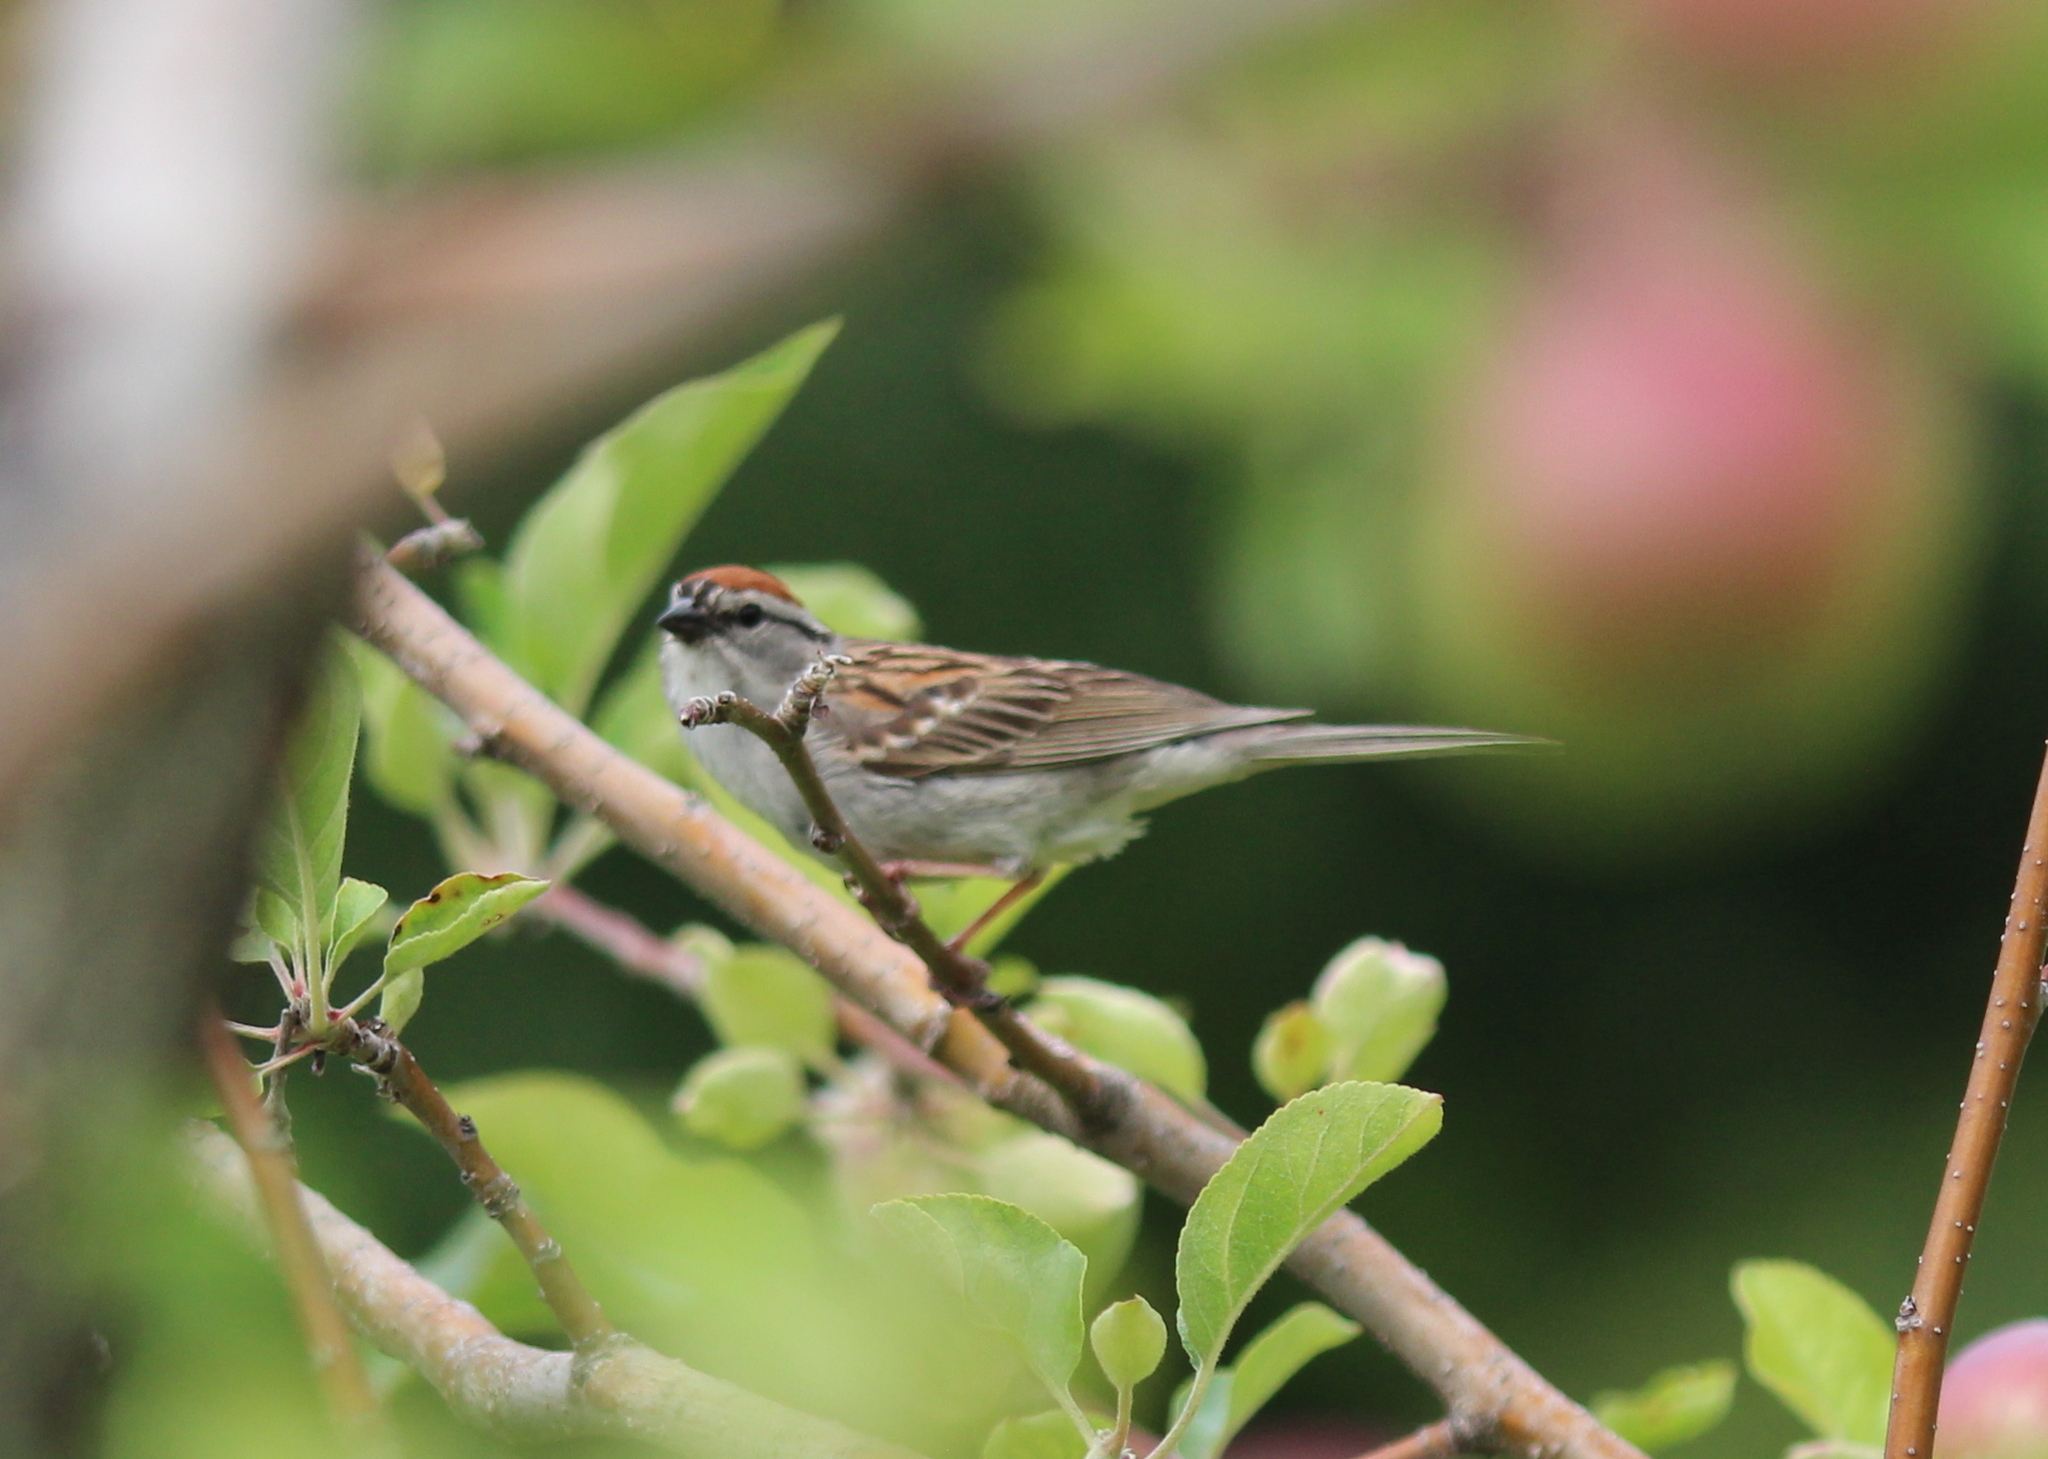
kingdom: Animalia
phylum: Chordata
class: Aves
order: Passeriformes
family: Passerellidae
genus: Spizella
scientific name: Spizella passerina
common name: Chipping sparrow
